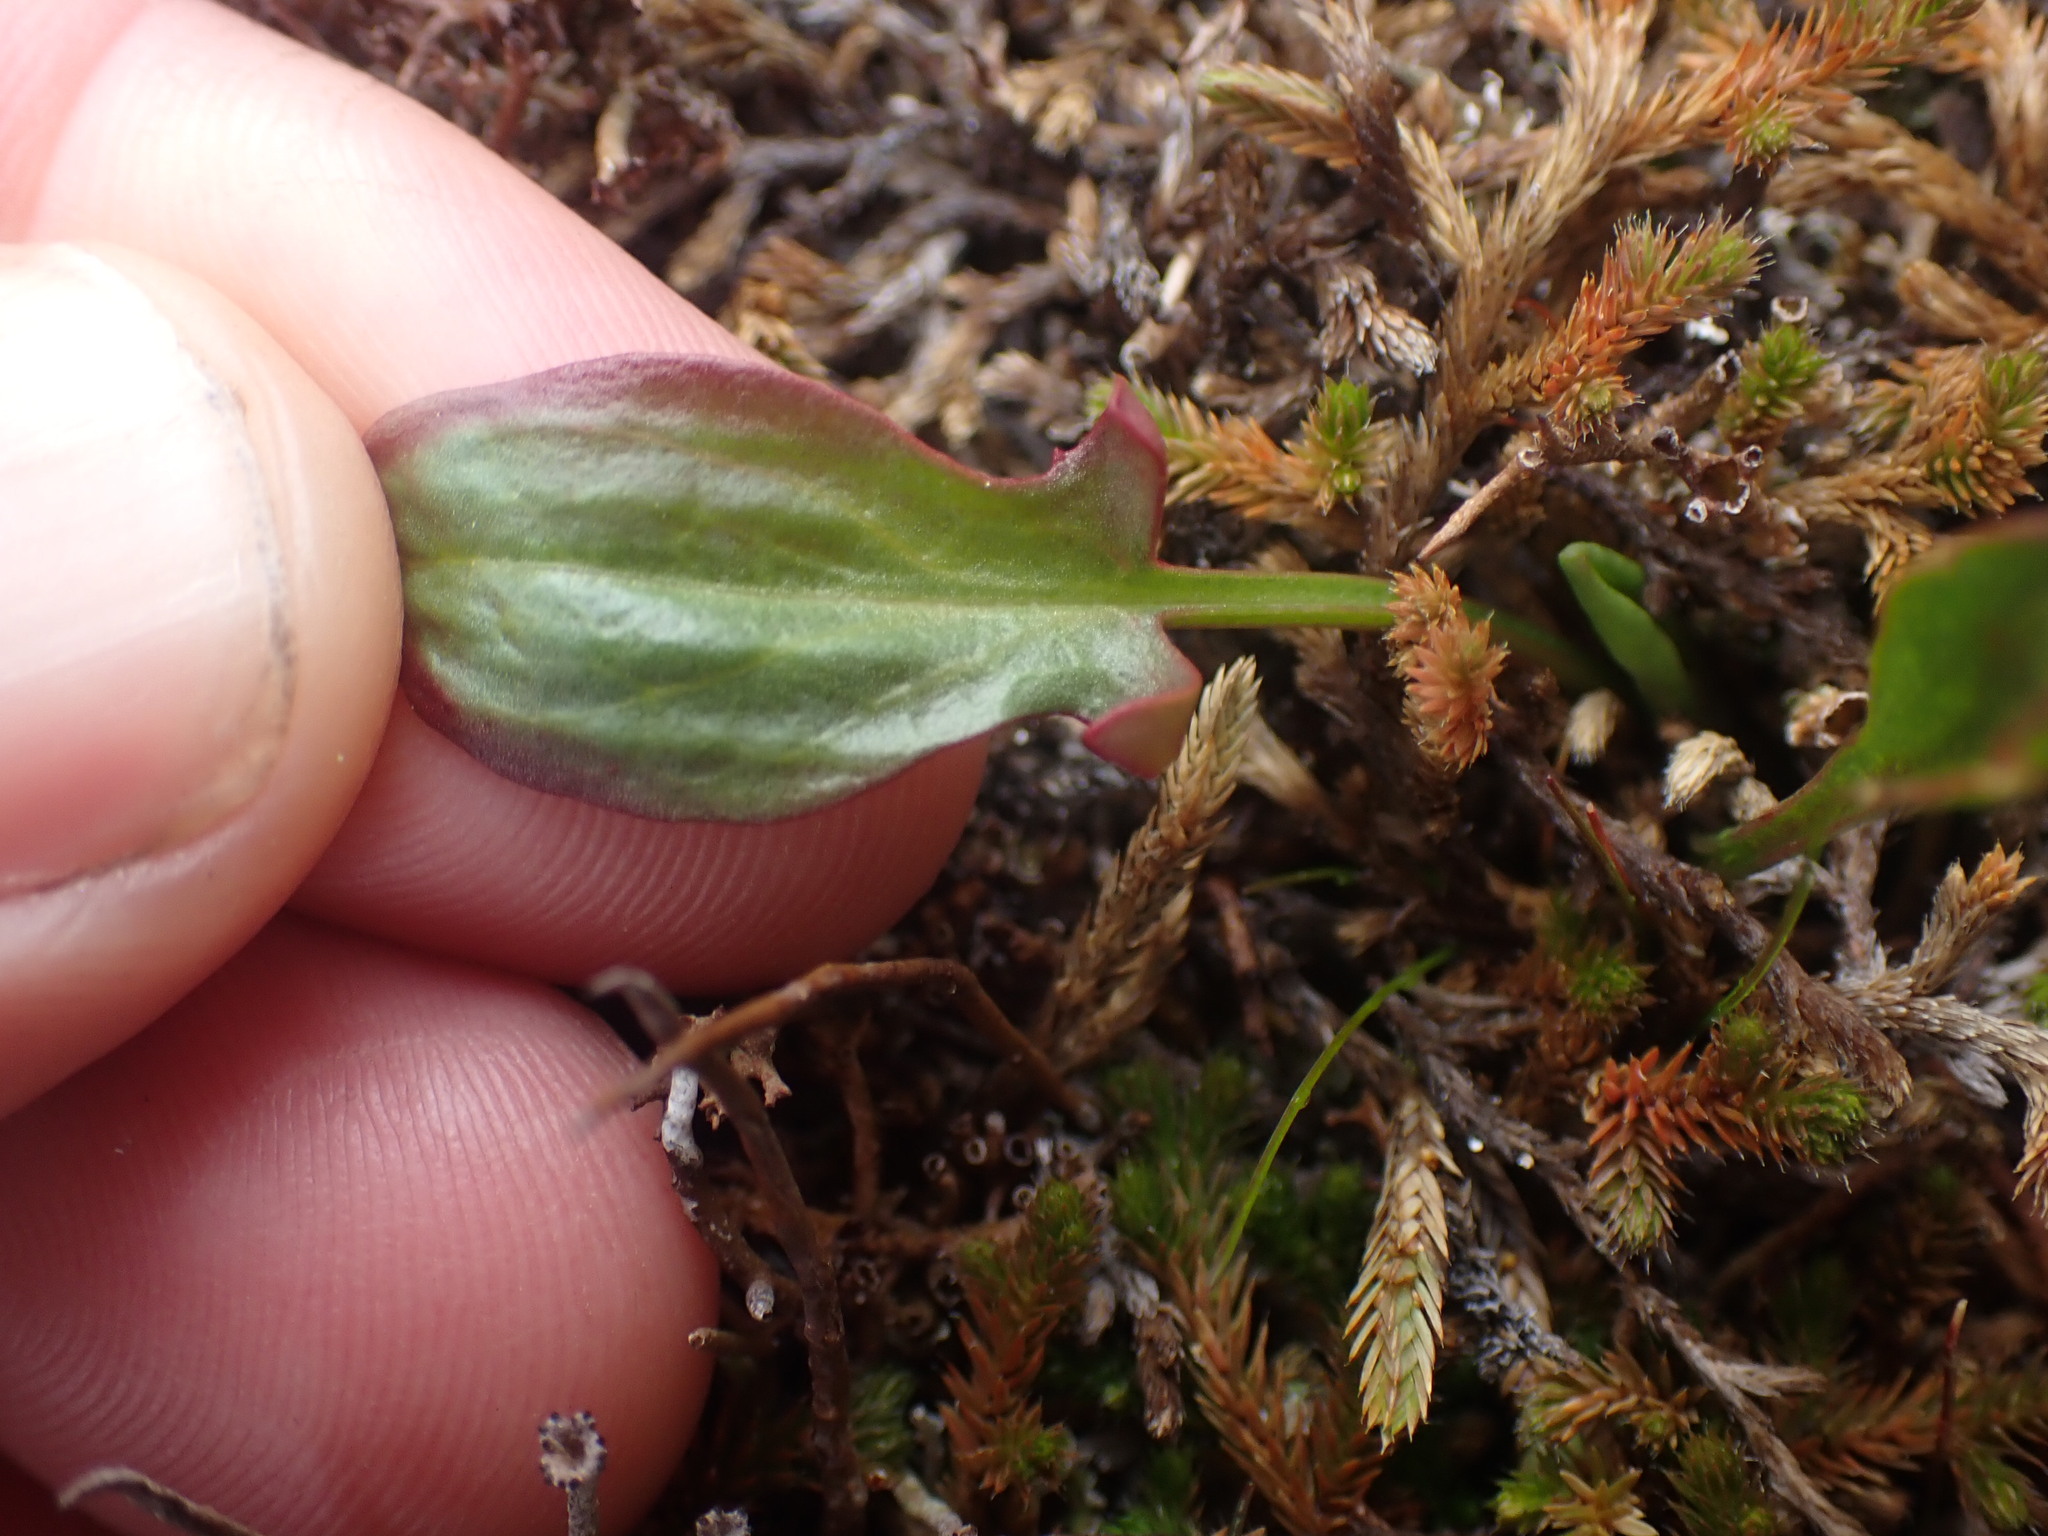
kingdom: Plantae
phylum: Tracheophyta
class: Magnoliopsida
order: Caryophyllales
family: Polygonaceae
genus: Rumex
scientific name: Rumex acetosella
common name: Common sheep sorrel
